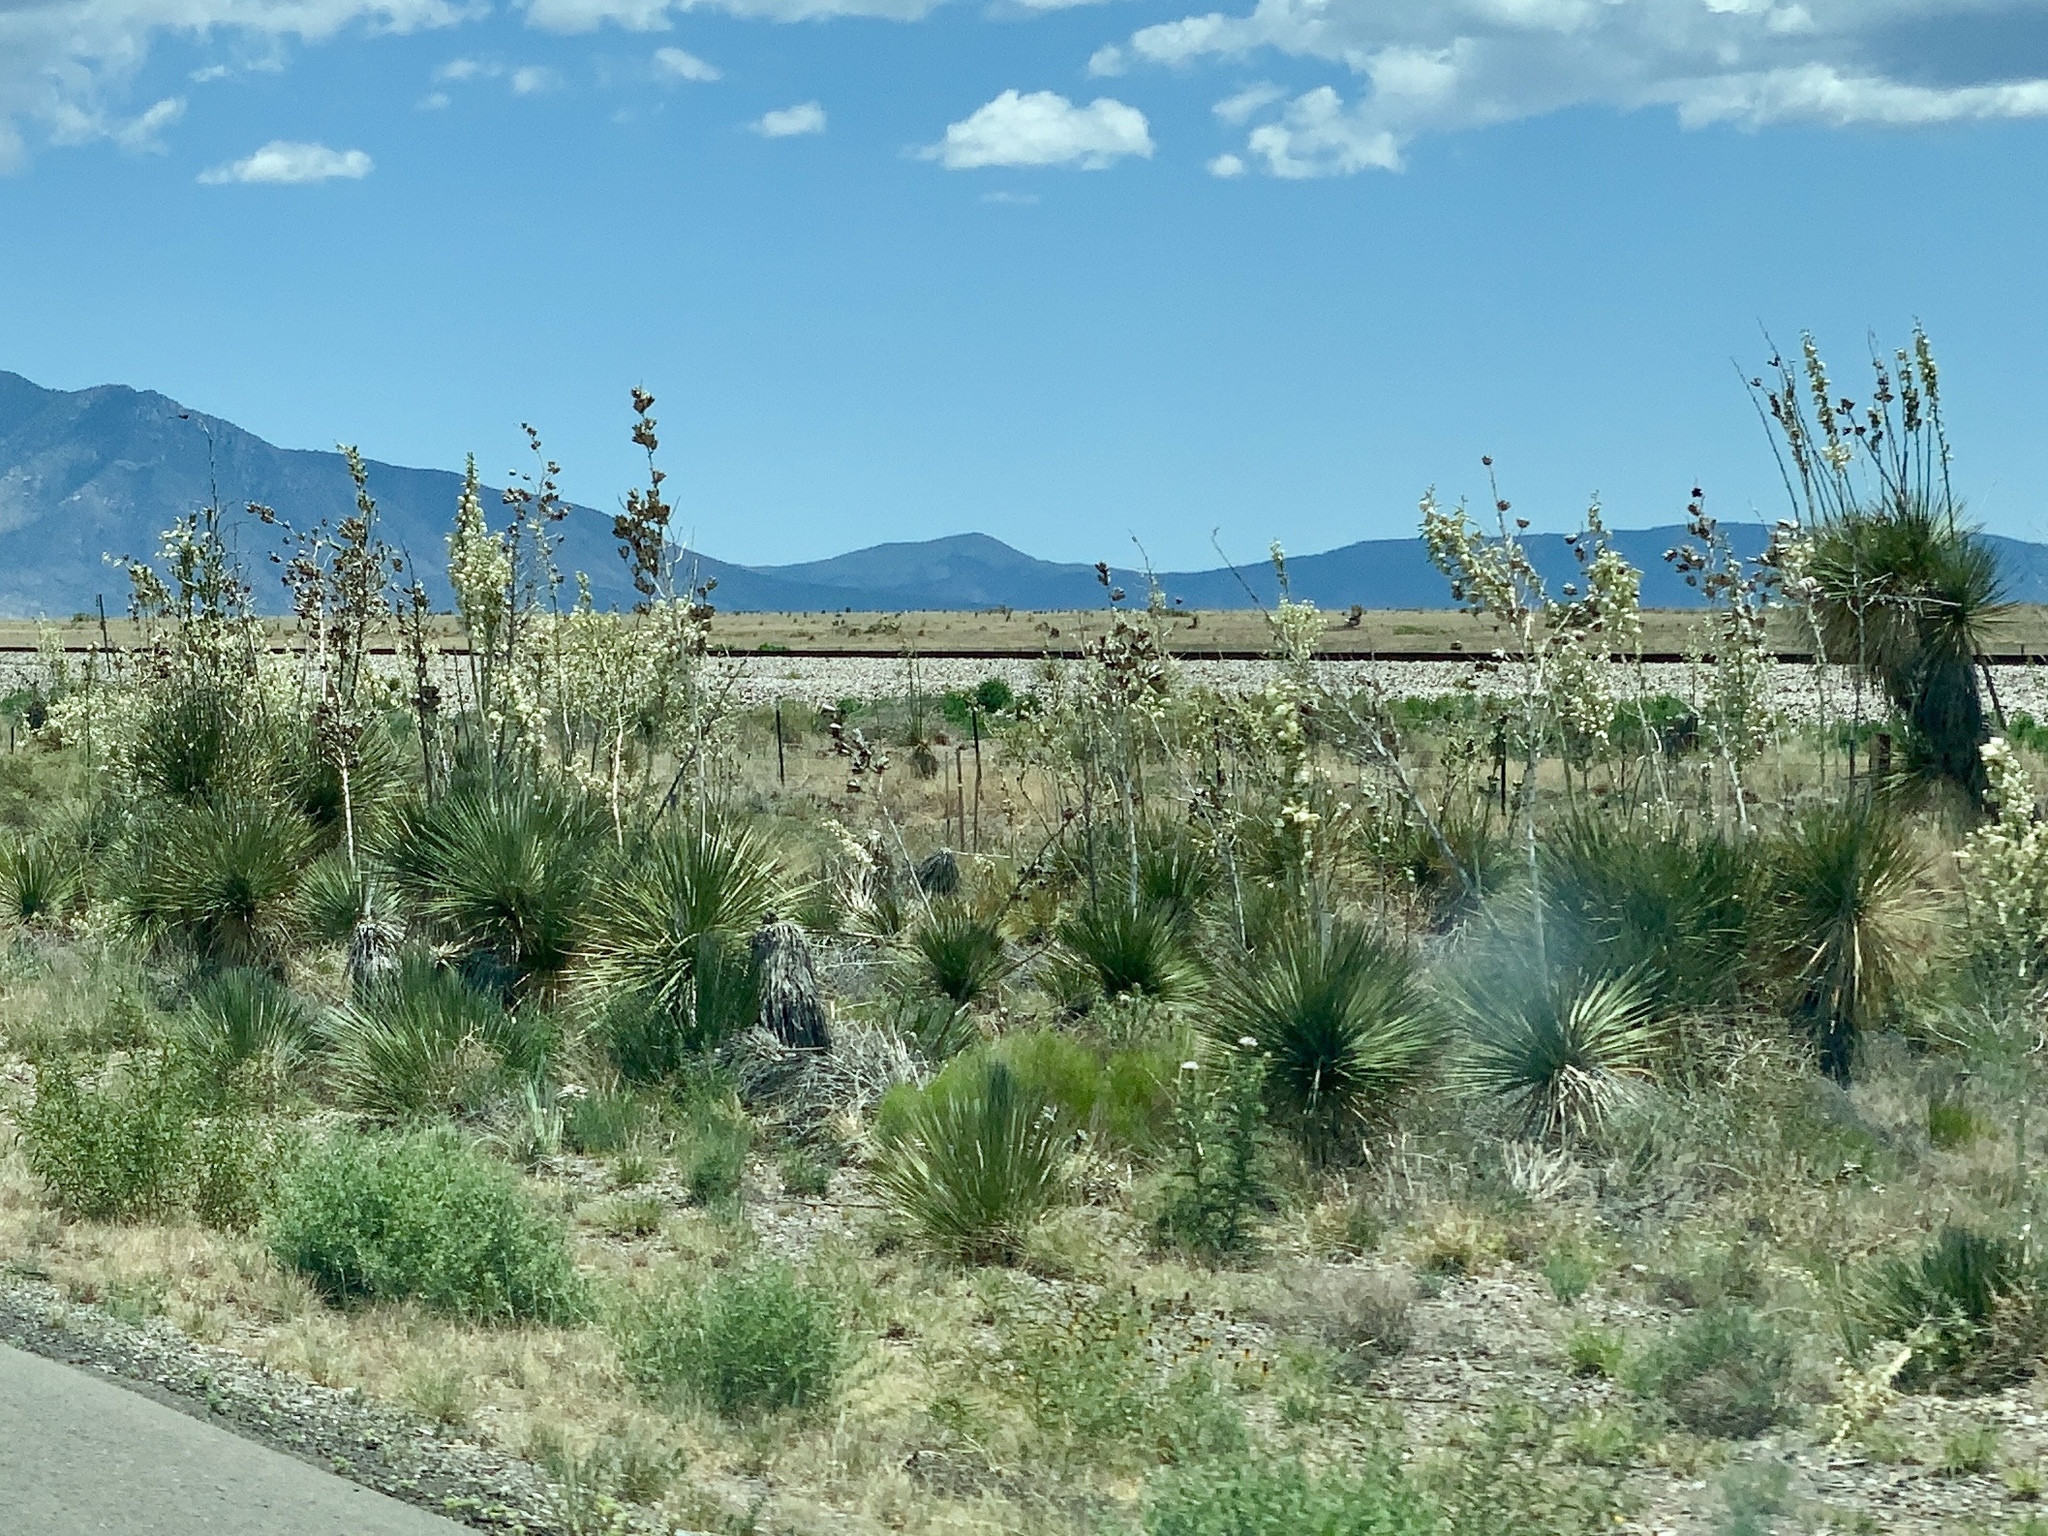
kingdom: Plantae
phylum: Tracheophyta
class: Liliopsida
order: Asparagales
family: Asparagaceae
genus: Yucca
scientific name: Yucca elata
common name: Palmella
